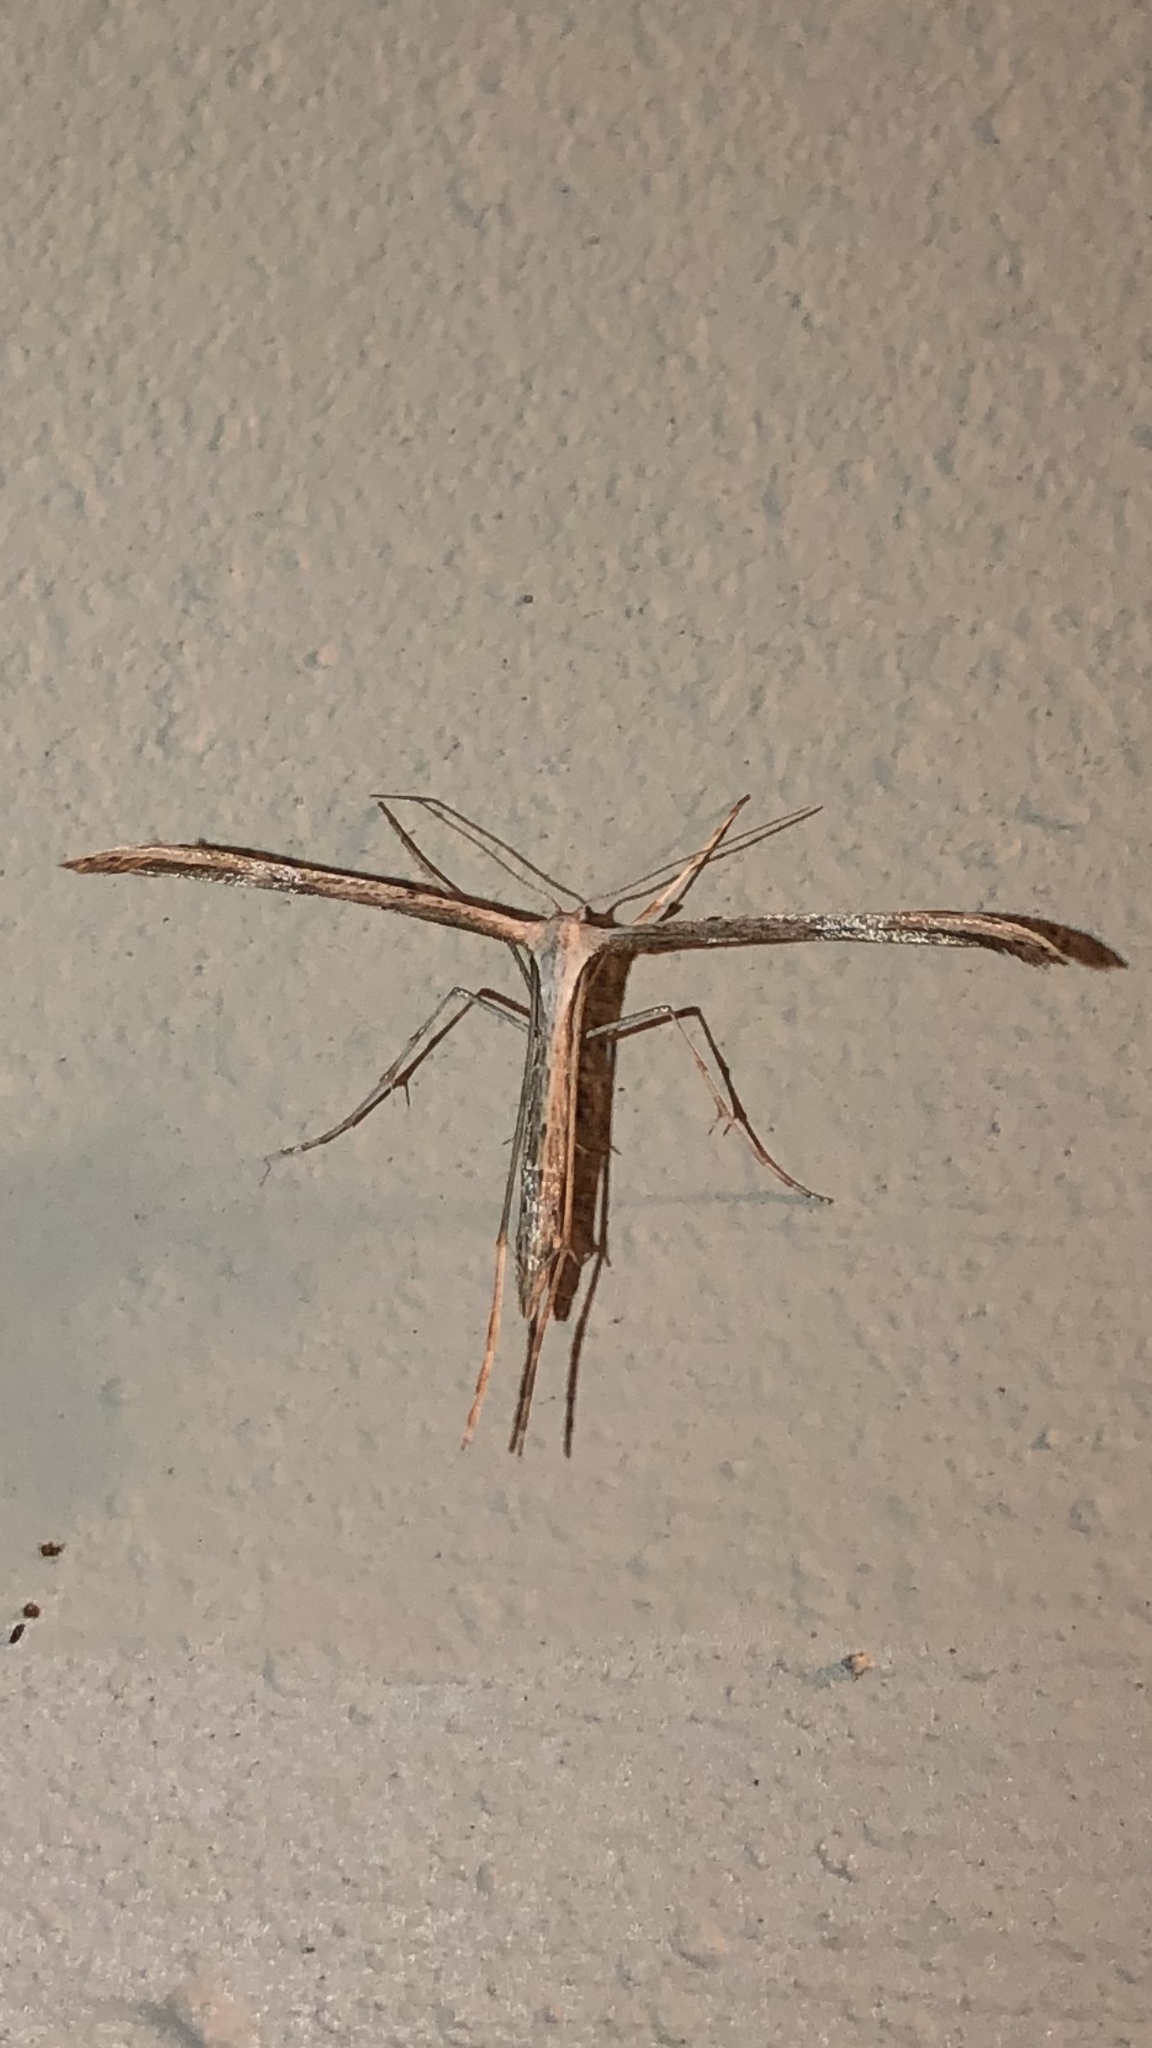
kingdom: Animalia
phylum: Arthropoda
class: Insecta
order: Lepidoptera
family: Pterophoridae
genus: Emmelina
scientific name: Emmelina monodactyla
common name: Common plume
